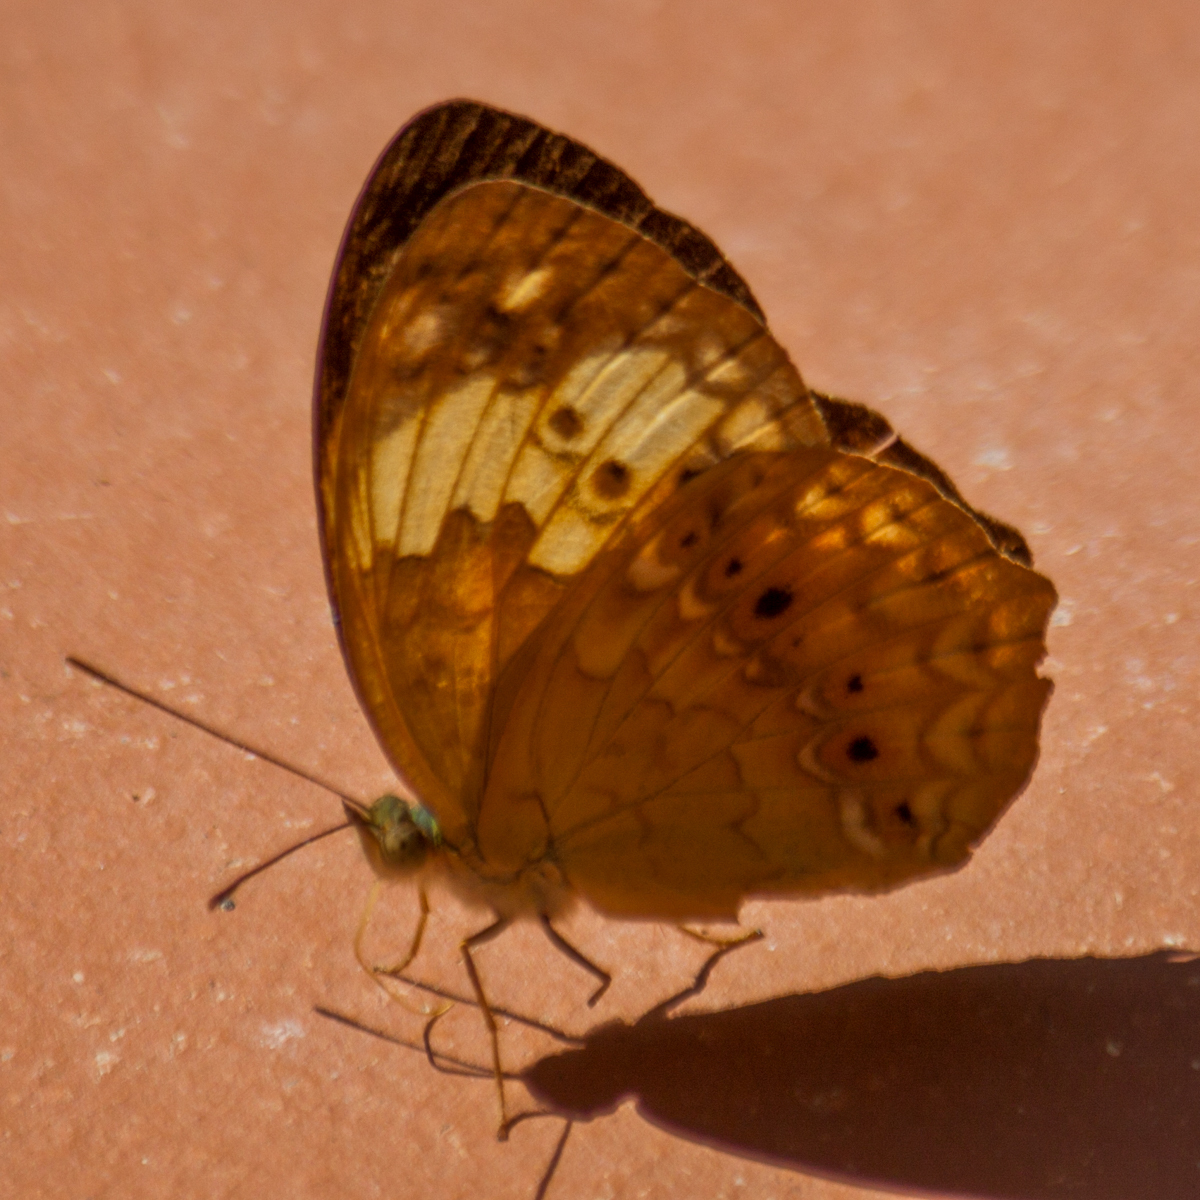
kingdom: Animalia
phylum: Arthropoda
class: Insecta
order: Lepidoptera
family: Nymphalidae
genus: Cupha
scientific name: Cupha erymanthis
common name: Rustic
